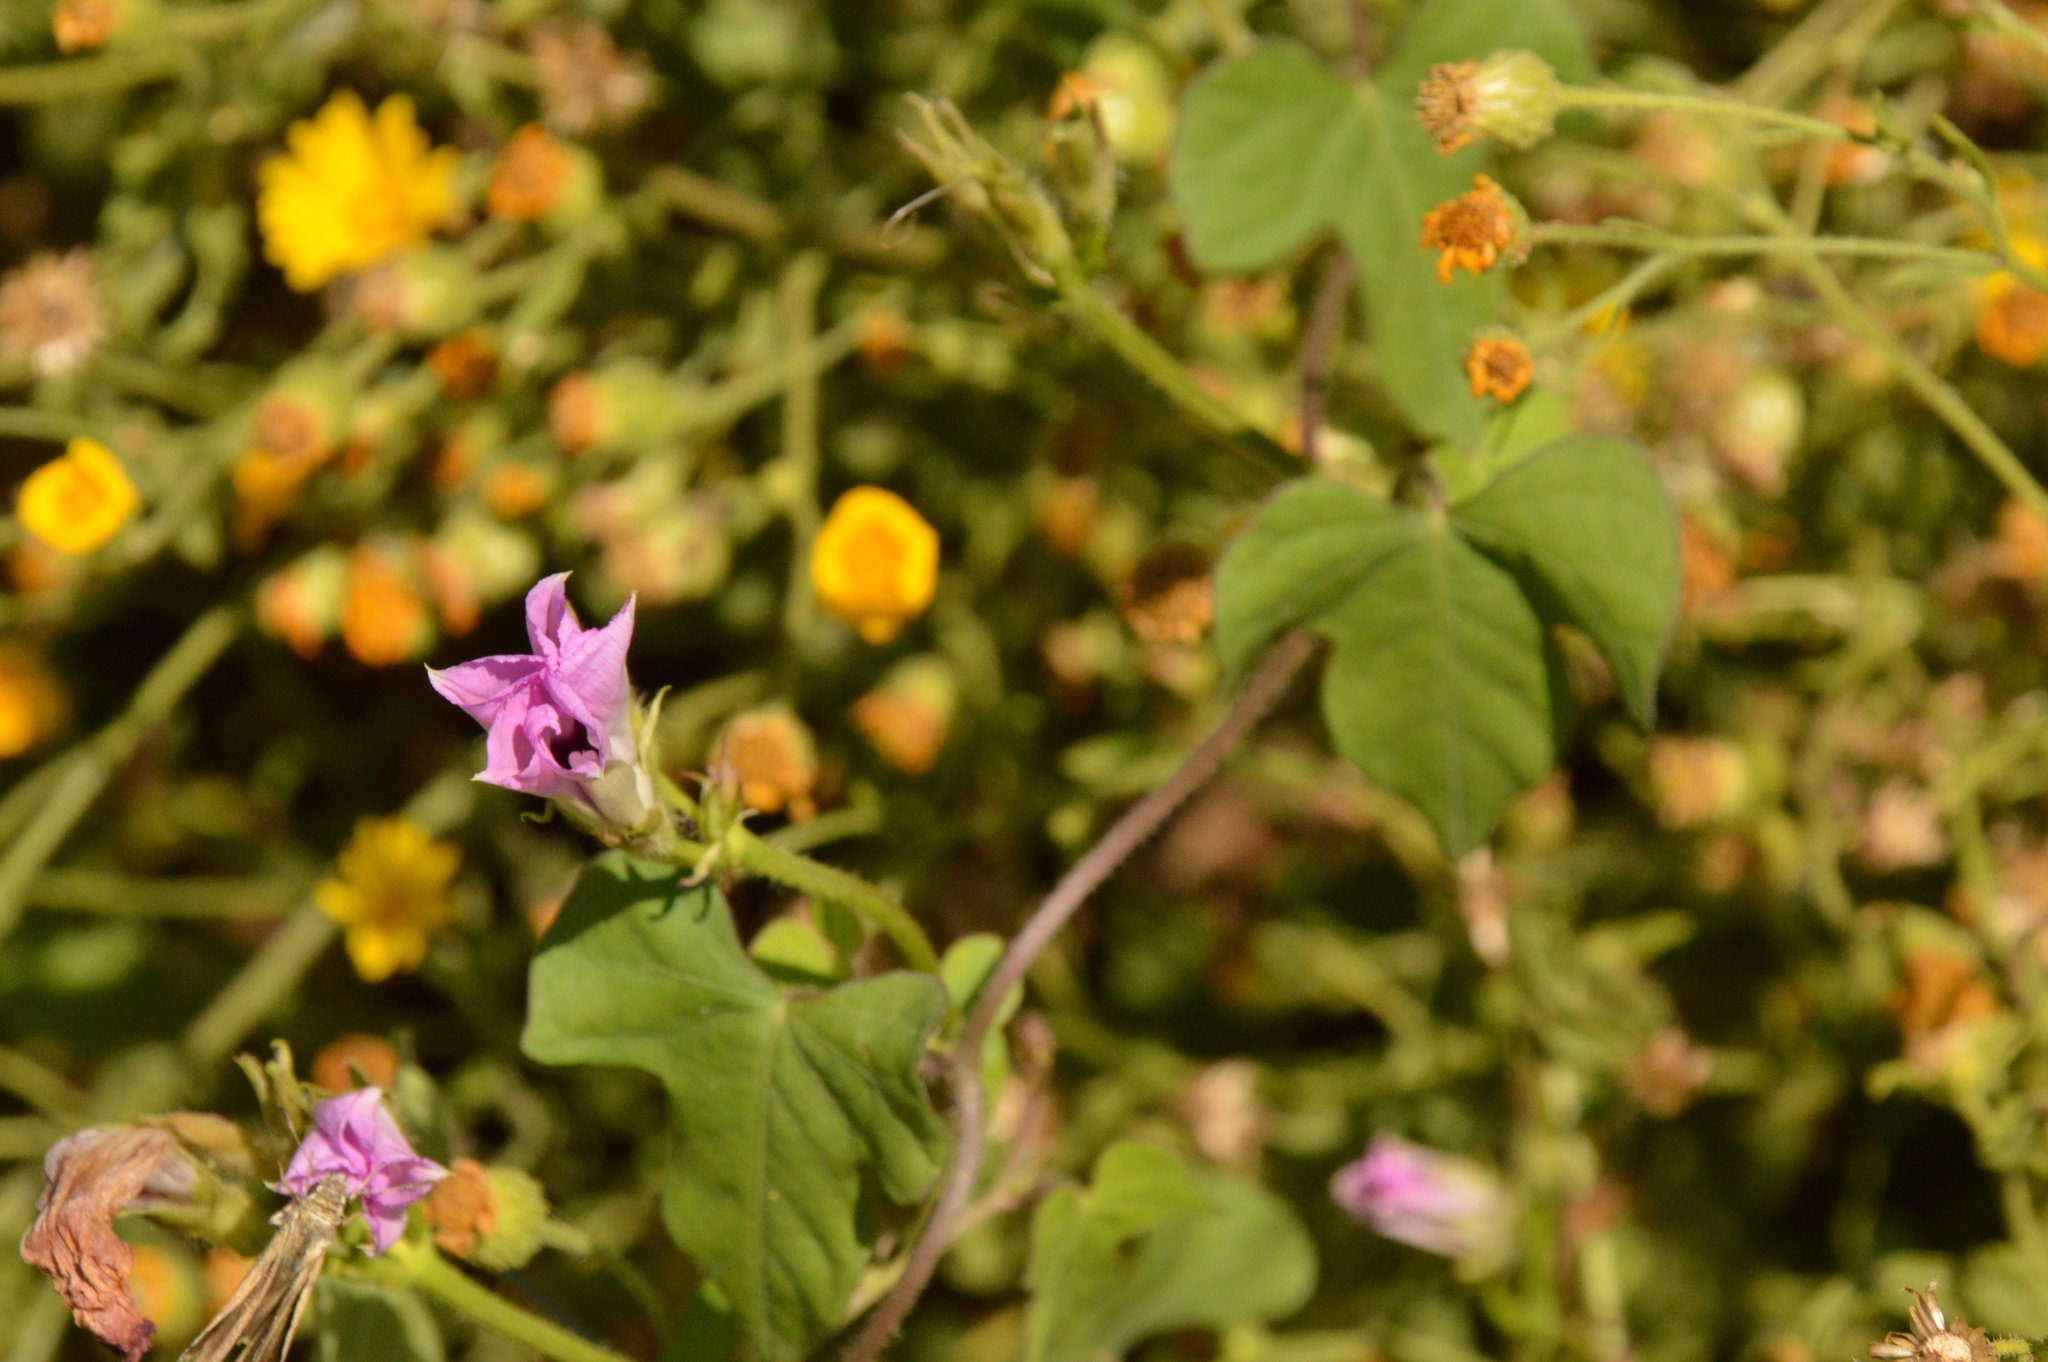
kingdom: Plantae
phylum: Tracheophyta
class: Magnoliopsida
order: Solanales
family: Convolvulaceae
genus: Ipomoea
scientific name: Ipomoea cordatotriloba
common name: Cotton morning glory
